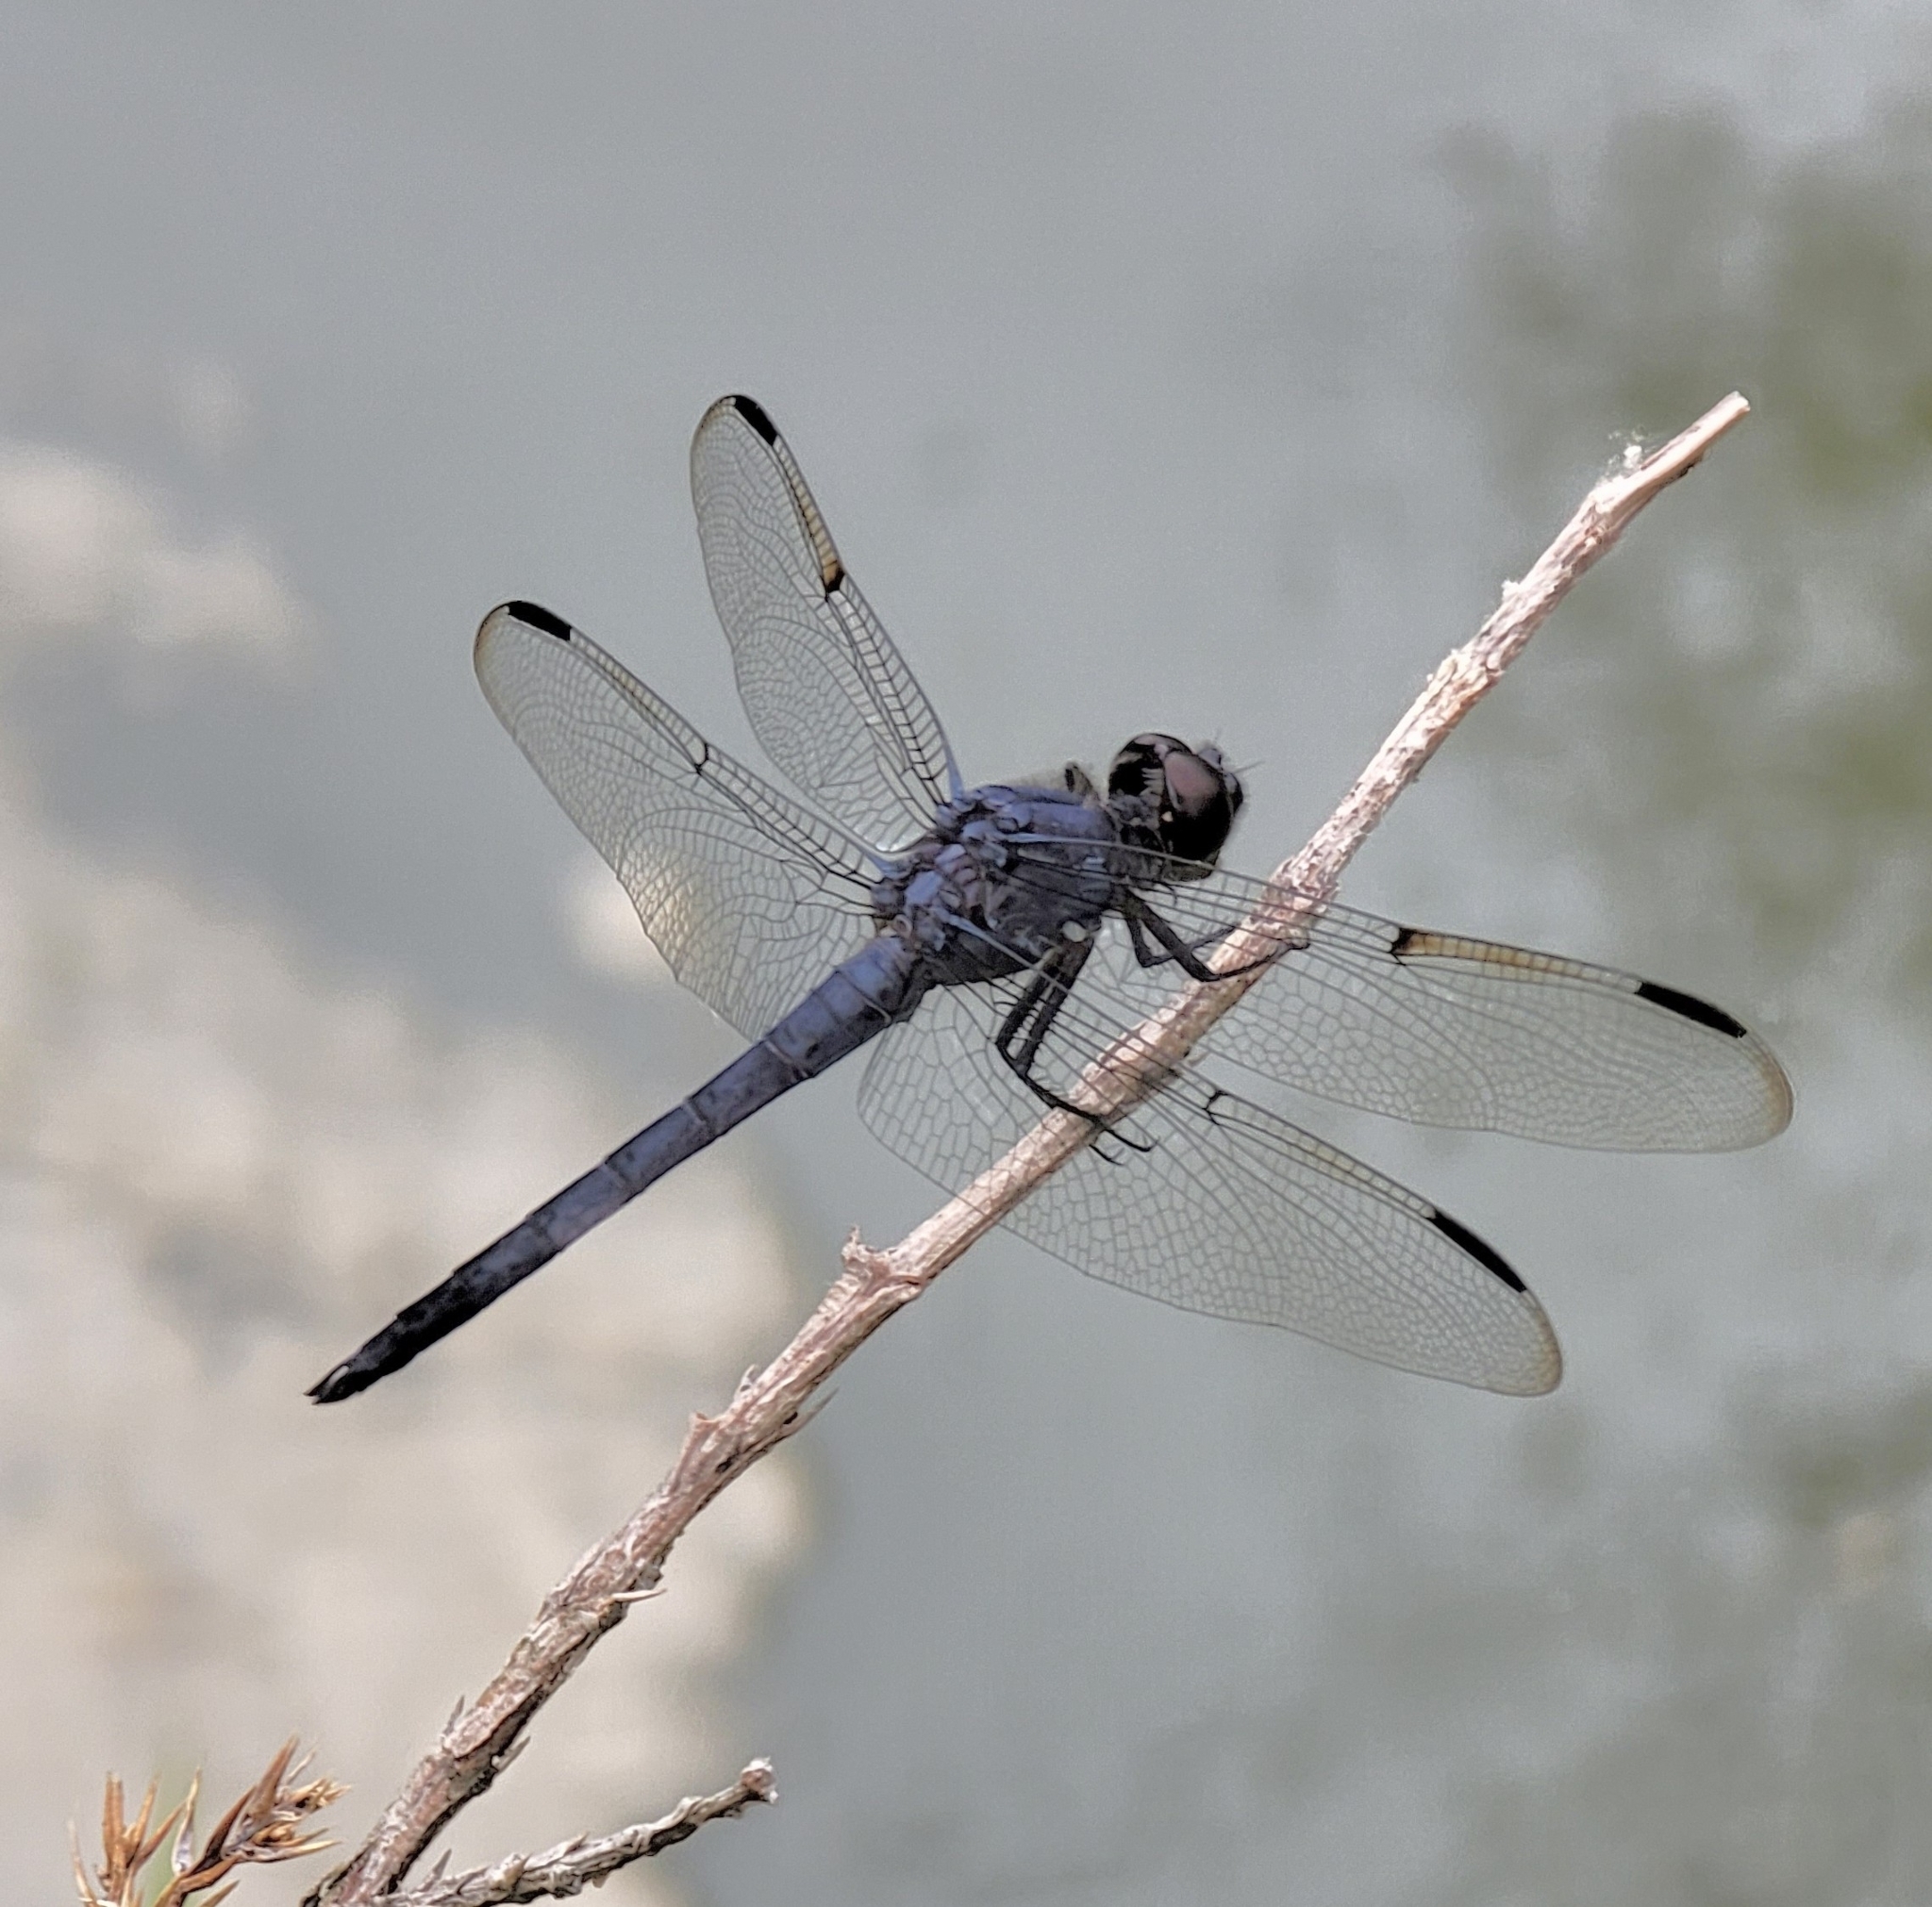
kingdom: Animalia
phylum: Arthropoda
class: Insecta
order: Odonata
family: Libellulidae
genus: Libellula
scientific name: Libellula incesta
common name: Slaty skimmer
